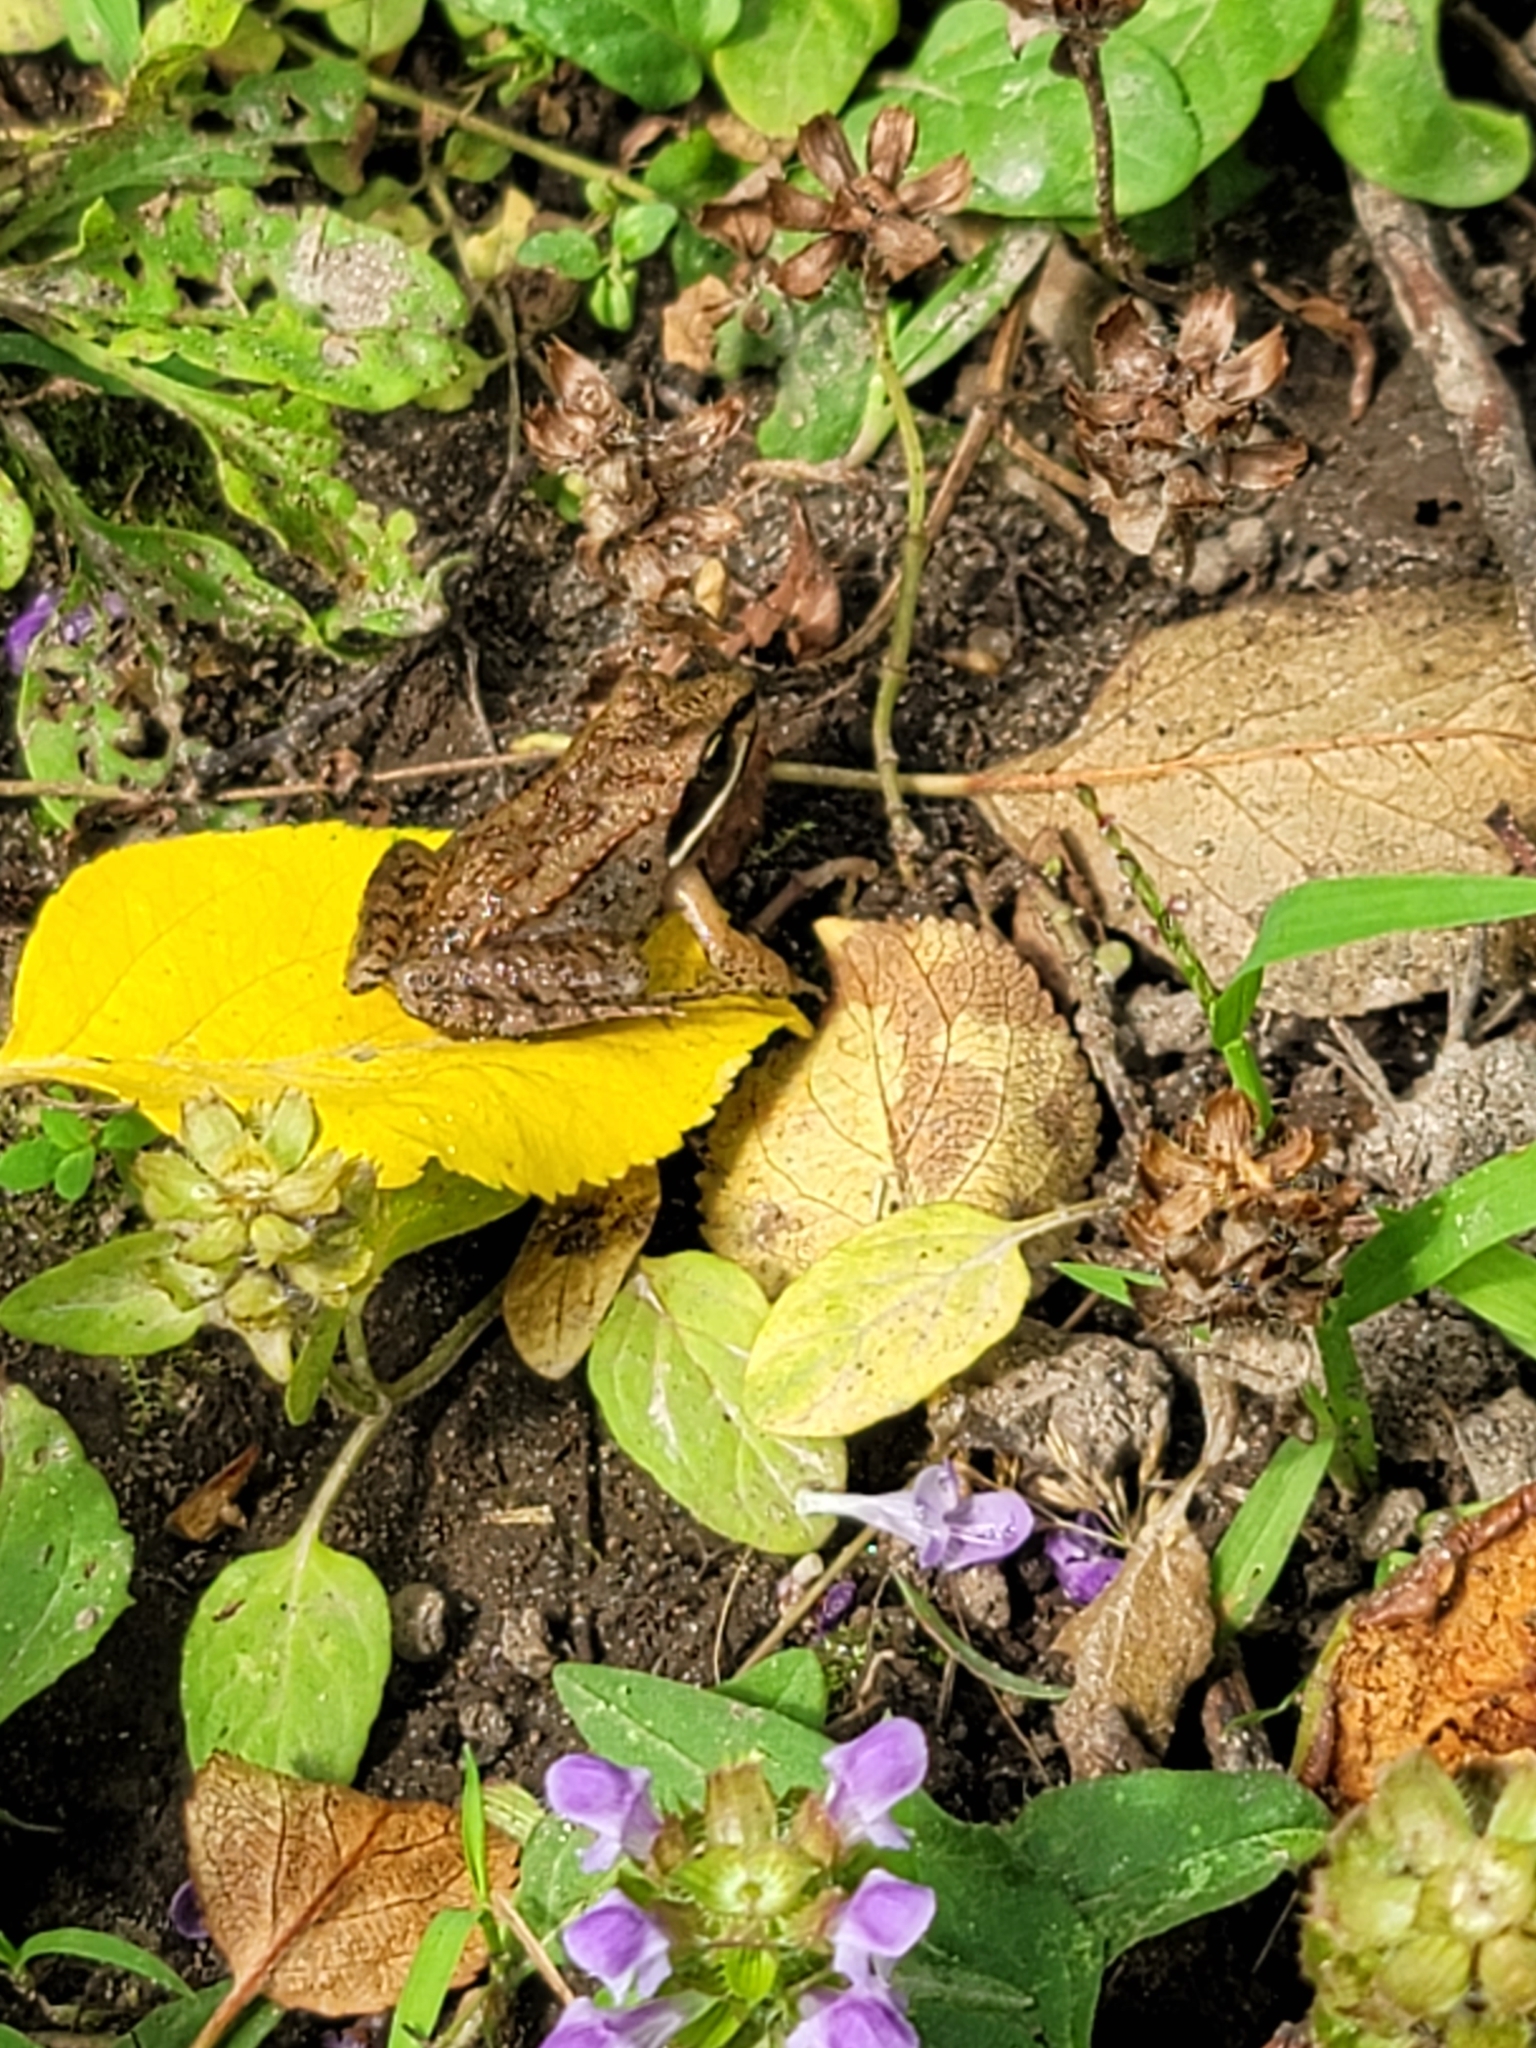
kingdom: Animalia
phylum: Chordata
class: Amphibia
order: Anura
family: Ranidae
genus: Lithobates
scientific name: Lithobates sylvaticus
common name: Wood frog
